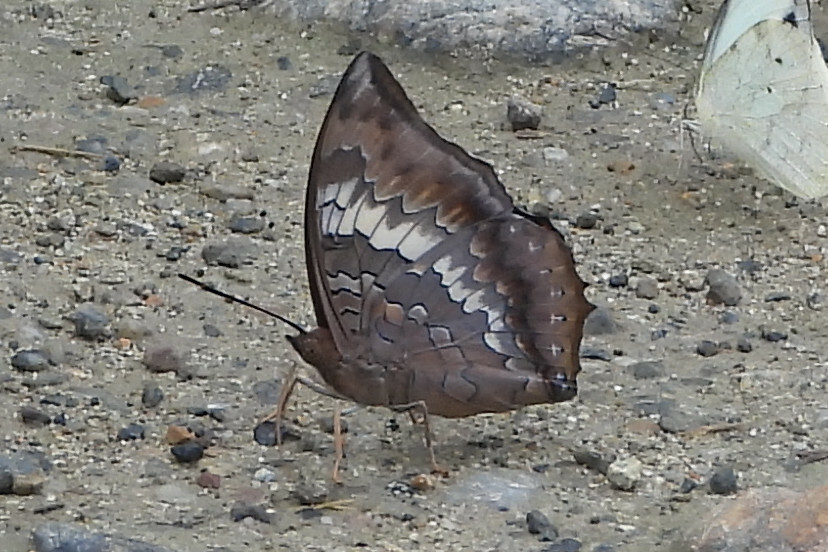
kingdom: Animalia
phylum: Arthropoda
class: Insecta
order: Lepidoptera
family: Nymphalidae
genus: Charaxes
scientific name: Charaxes bernardus
